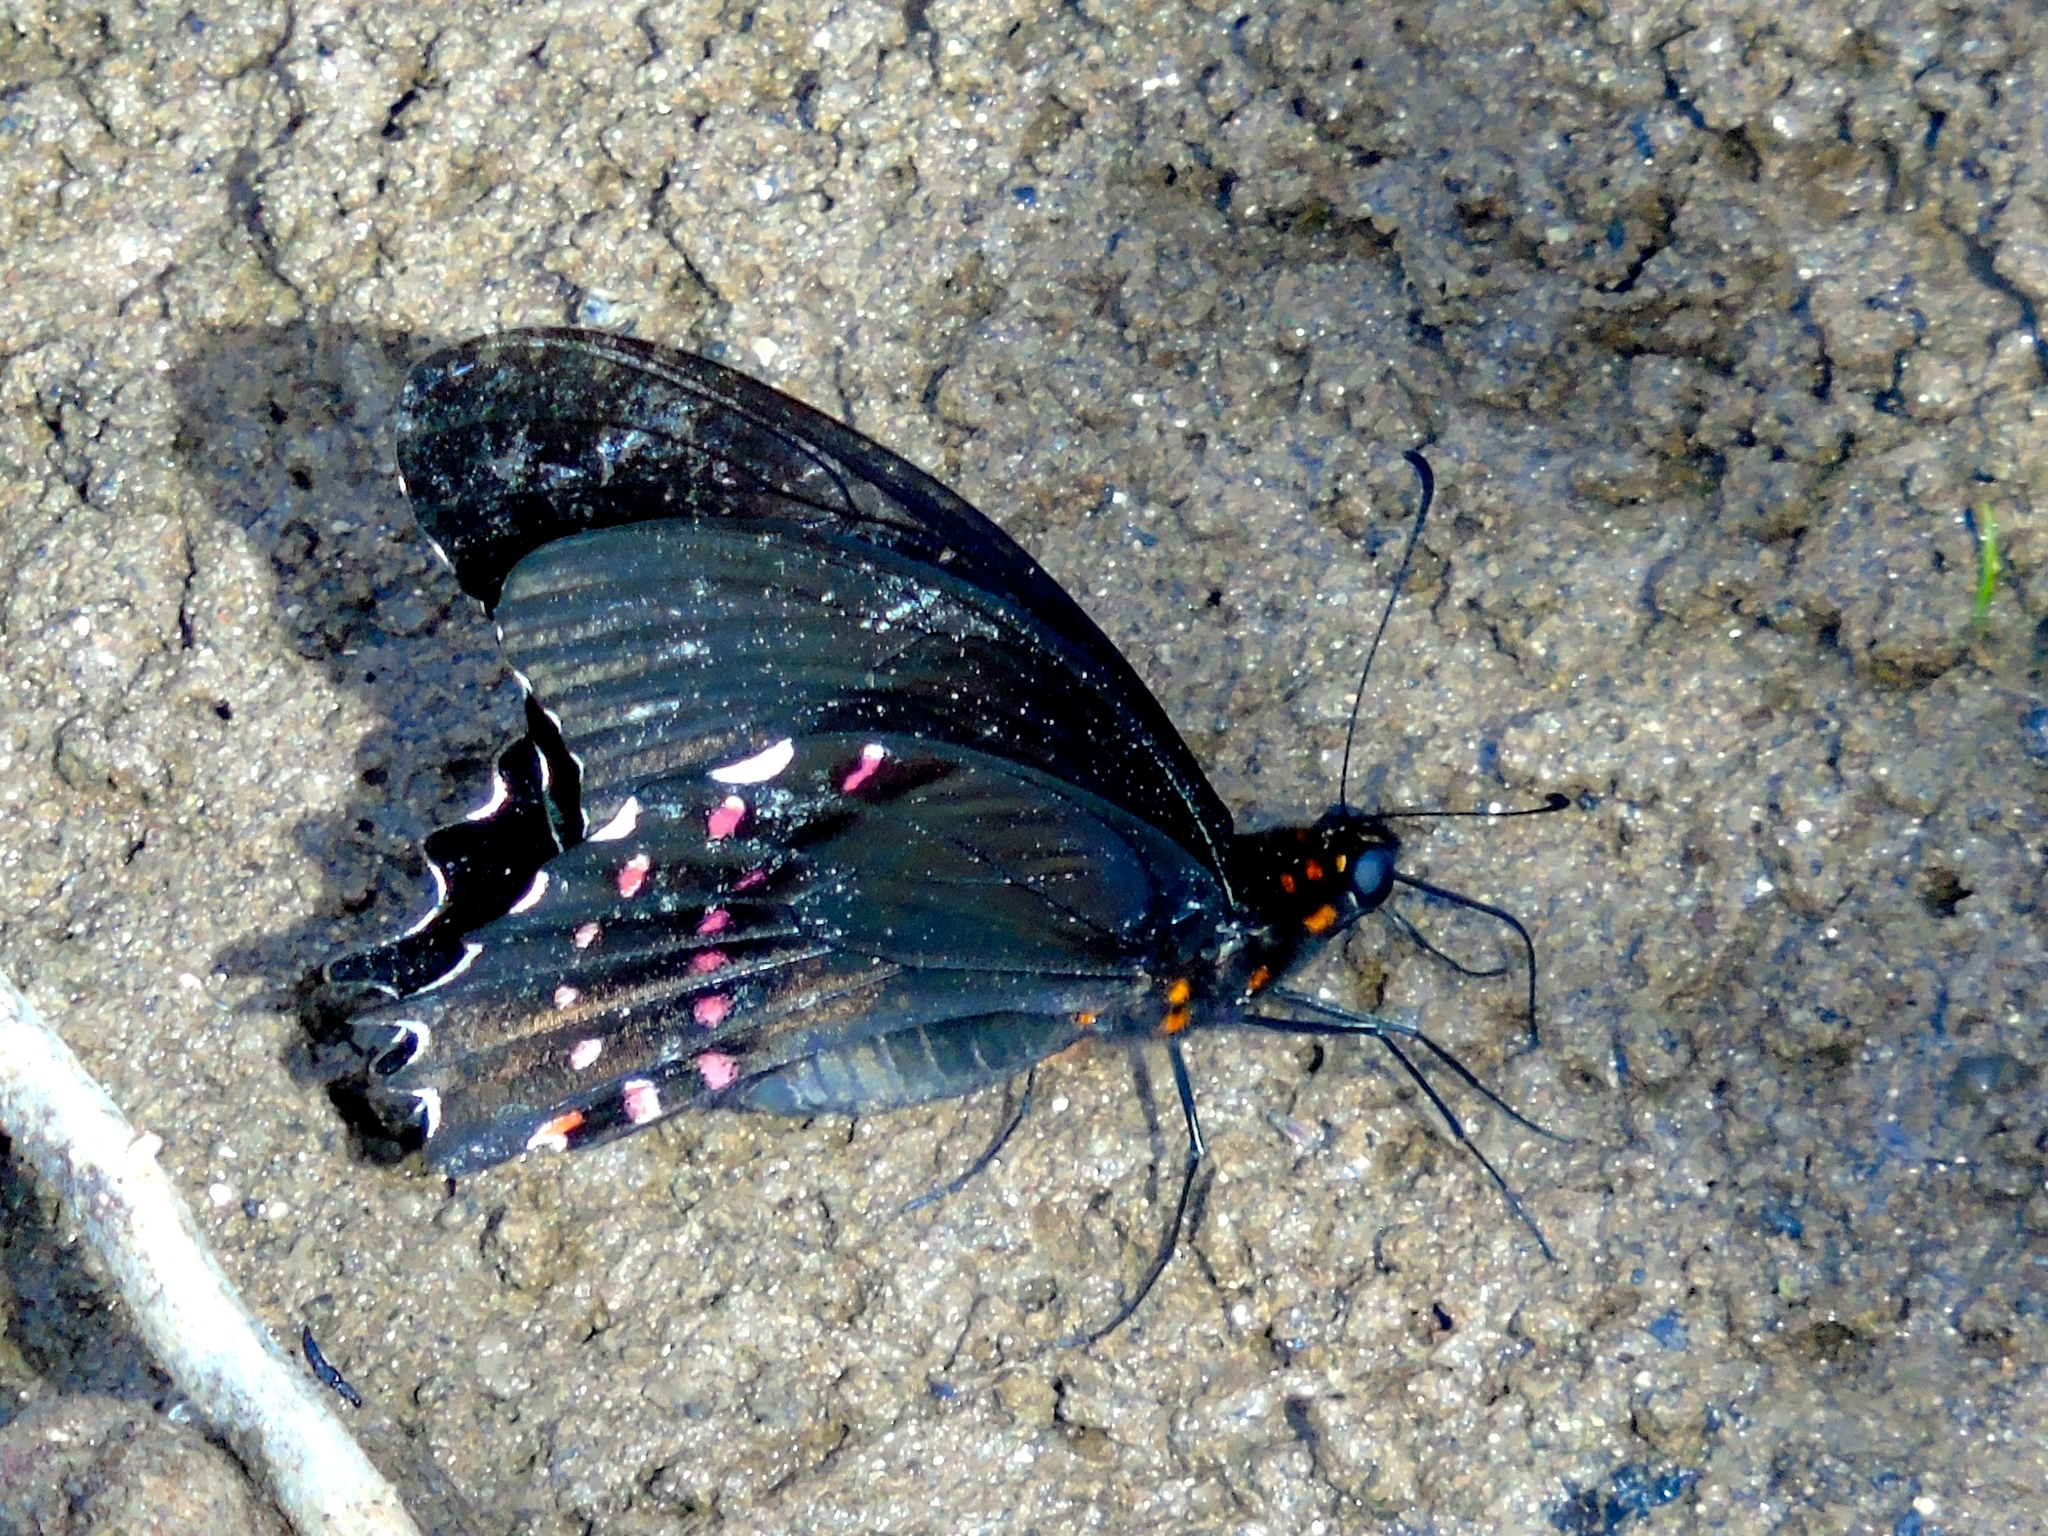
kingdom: Animalia
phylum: Arthropoda
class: Insecta
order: Lepidoptera
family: Papilionidae
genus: Heraclides
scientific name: Heraclides rogeri
